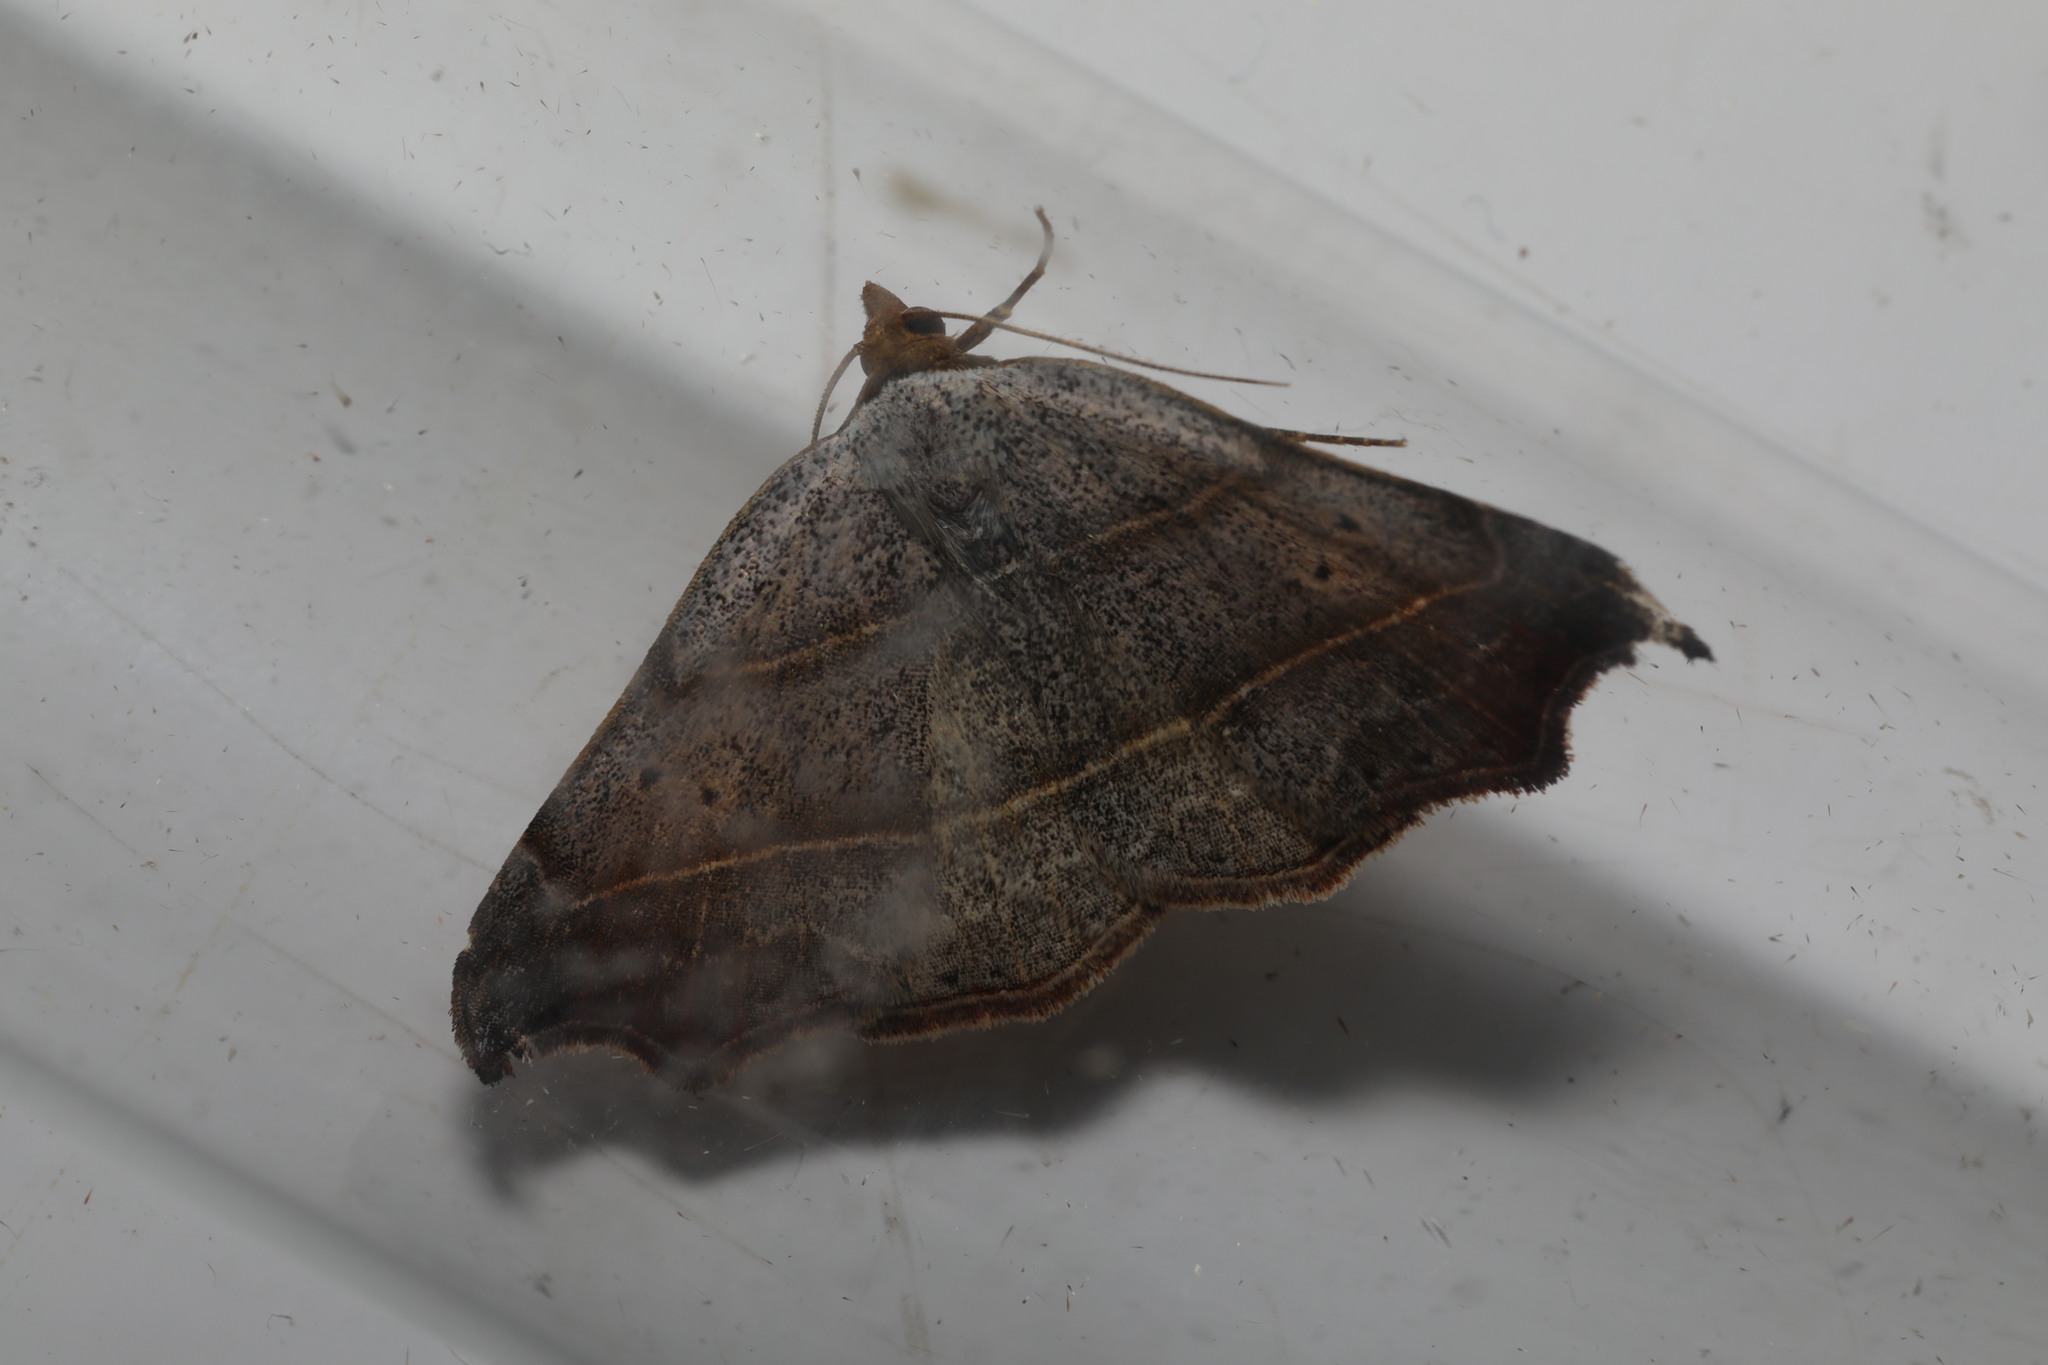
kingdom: Animalia
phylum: Arthropoda
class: Insecta
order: Lepidoptera
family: Erebidae
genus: Laspeyria
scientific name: Laspeyria flexula
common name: Beautiful hook-tip
